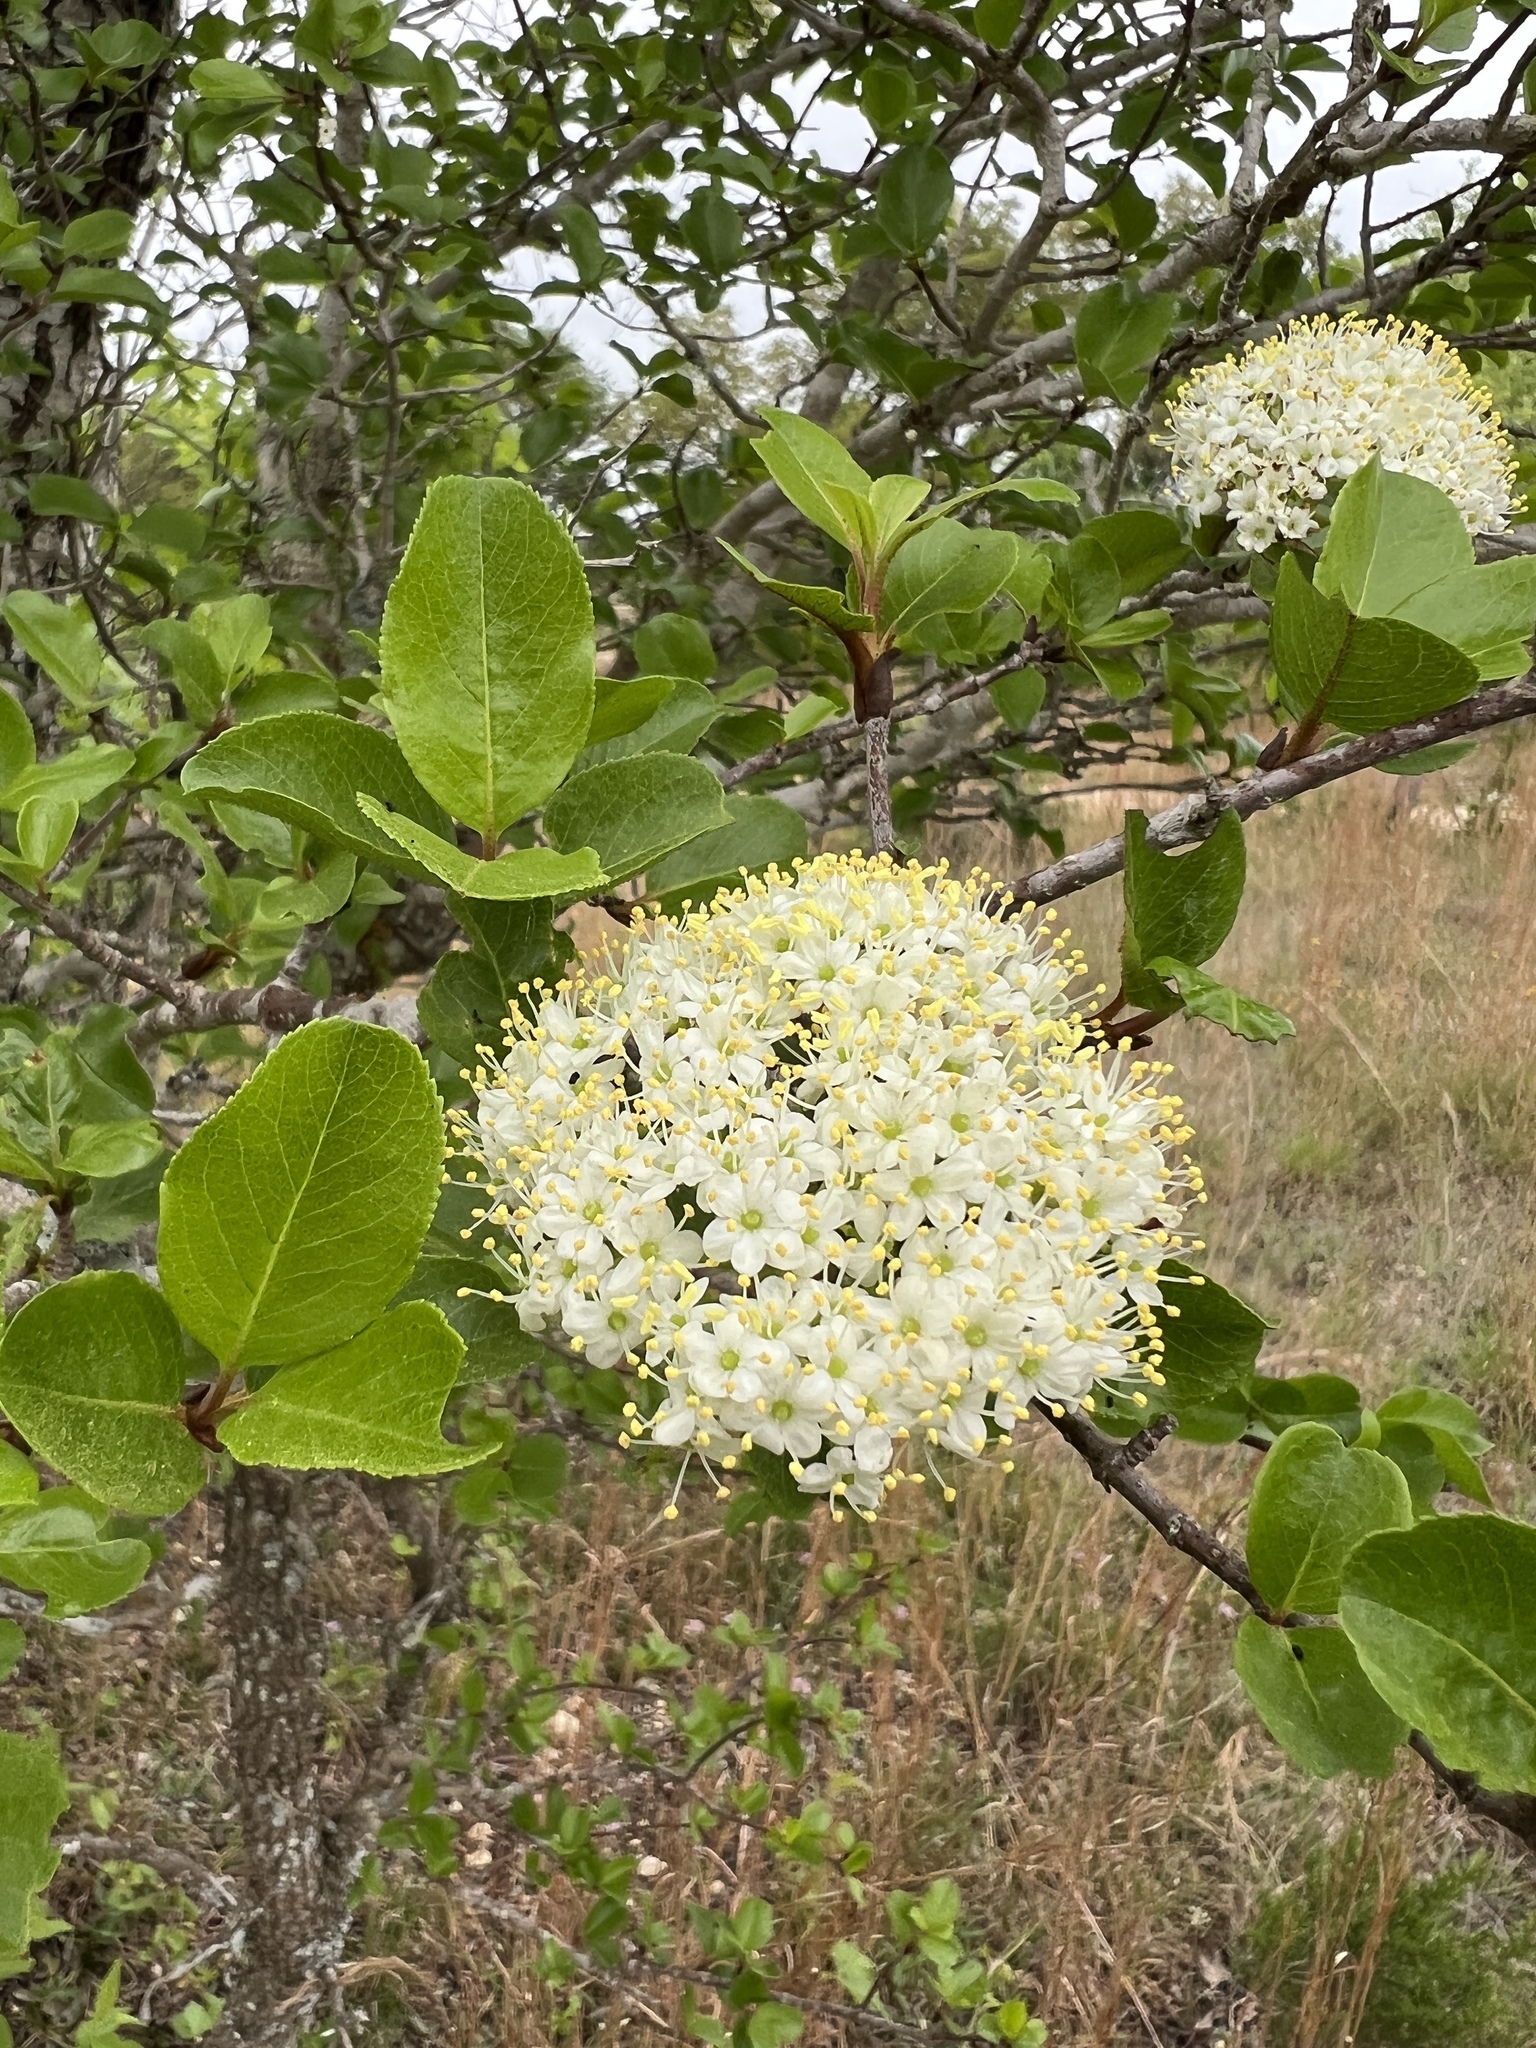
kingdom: Plantae
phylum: Tracheophyta
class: Magnoliopsida
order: Dipsacales
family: Viburnaceae
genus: Viburnum
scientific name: Viburnum rufidulum
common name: Blue haw
